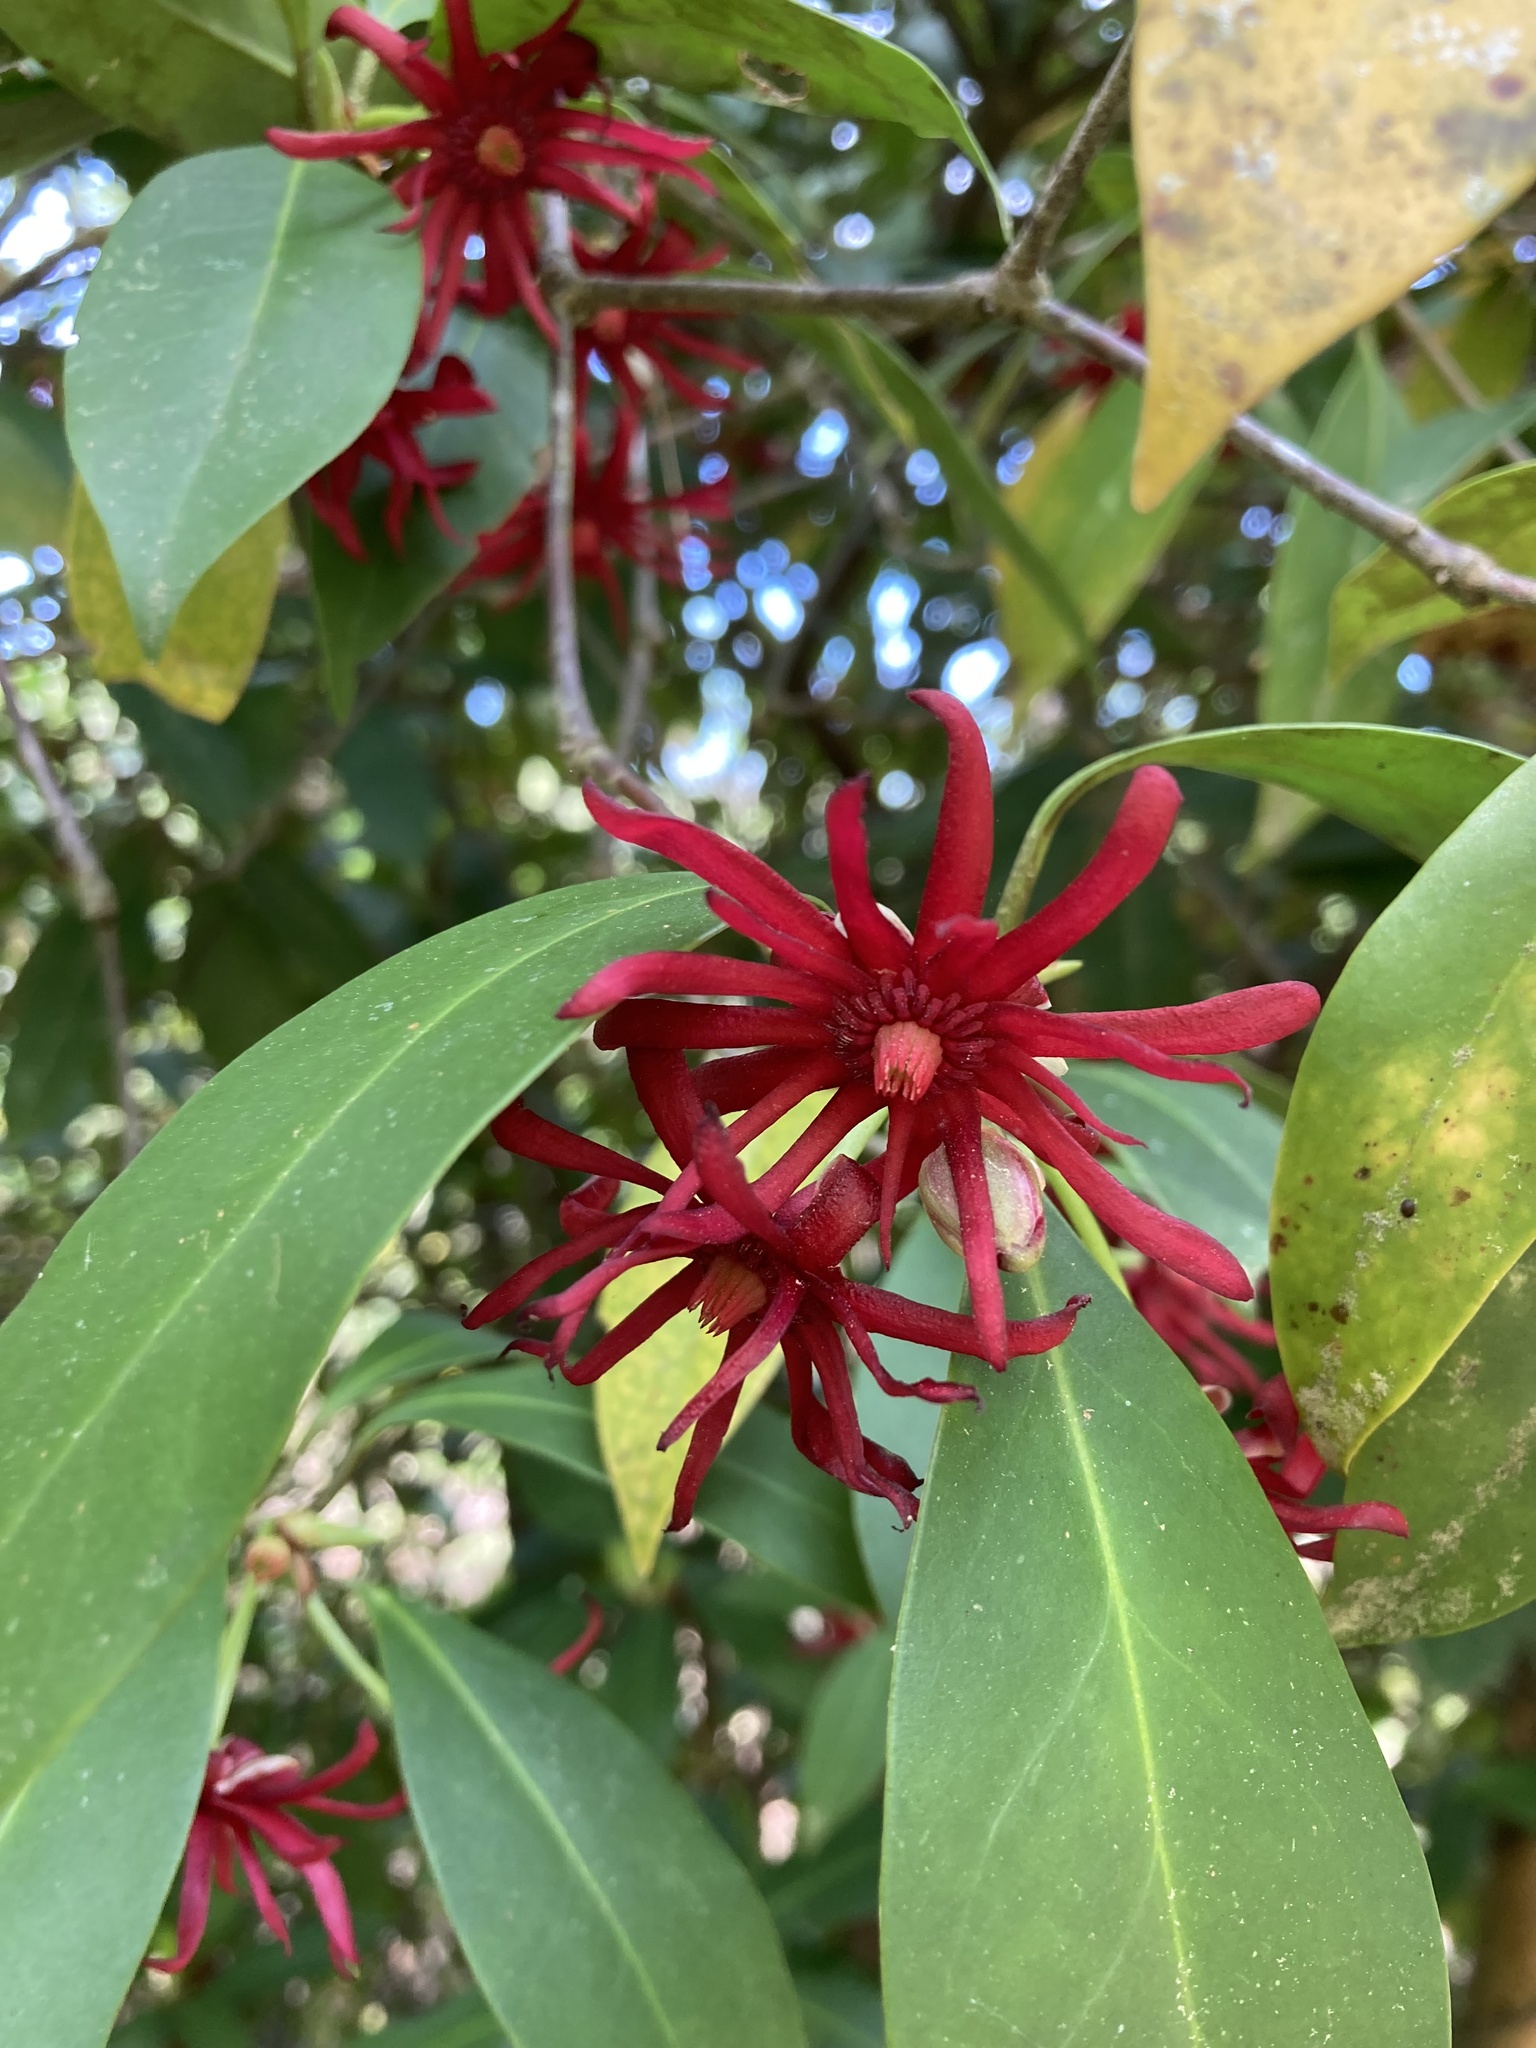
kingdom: Plantae
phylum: Tracheophyta
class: Magnoliopsida
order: Austrobaileyales
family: Schisandraceae
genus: Illicium
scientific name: Illicium floridanum
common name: Florida anisetree
